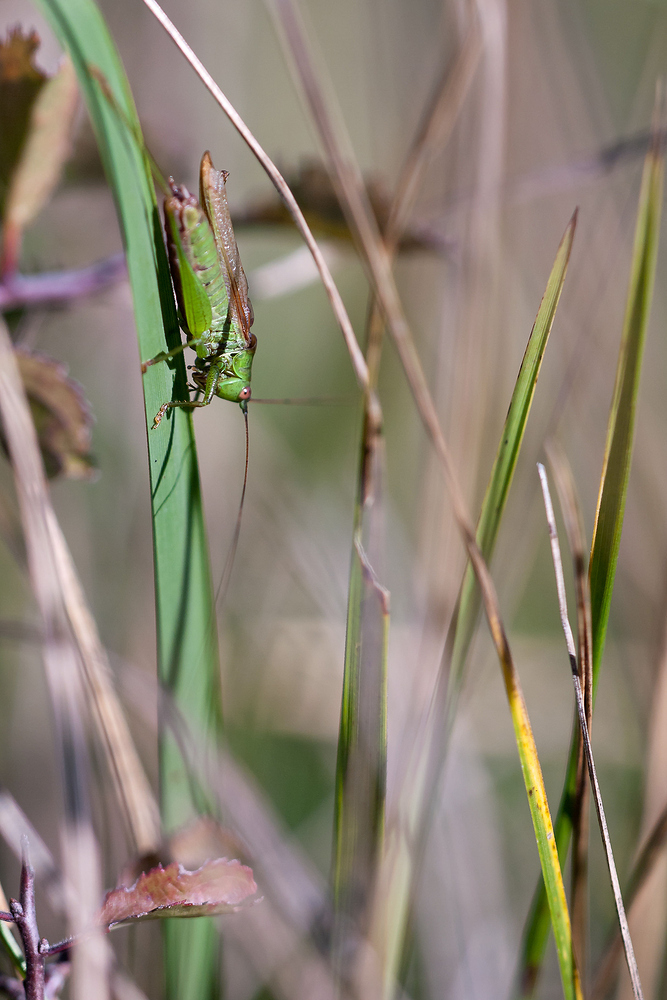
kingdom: Animalia
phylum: Arthropoda
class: Insecta
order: Orthoptera
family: Tettigoniidae
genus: Conocephalus
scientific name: Conocephalus fuscus
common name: Long-winged conehead
